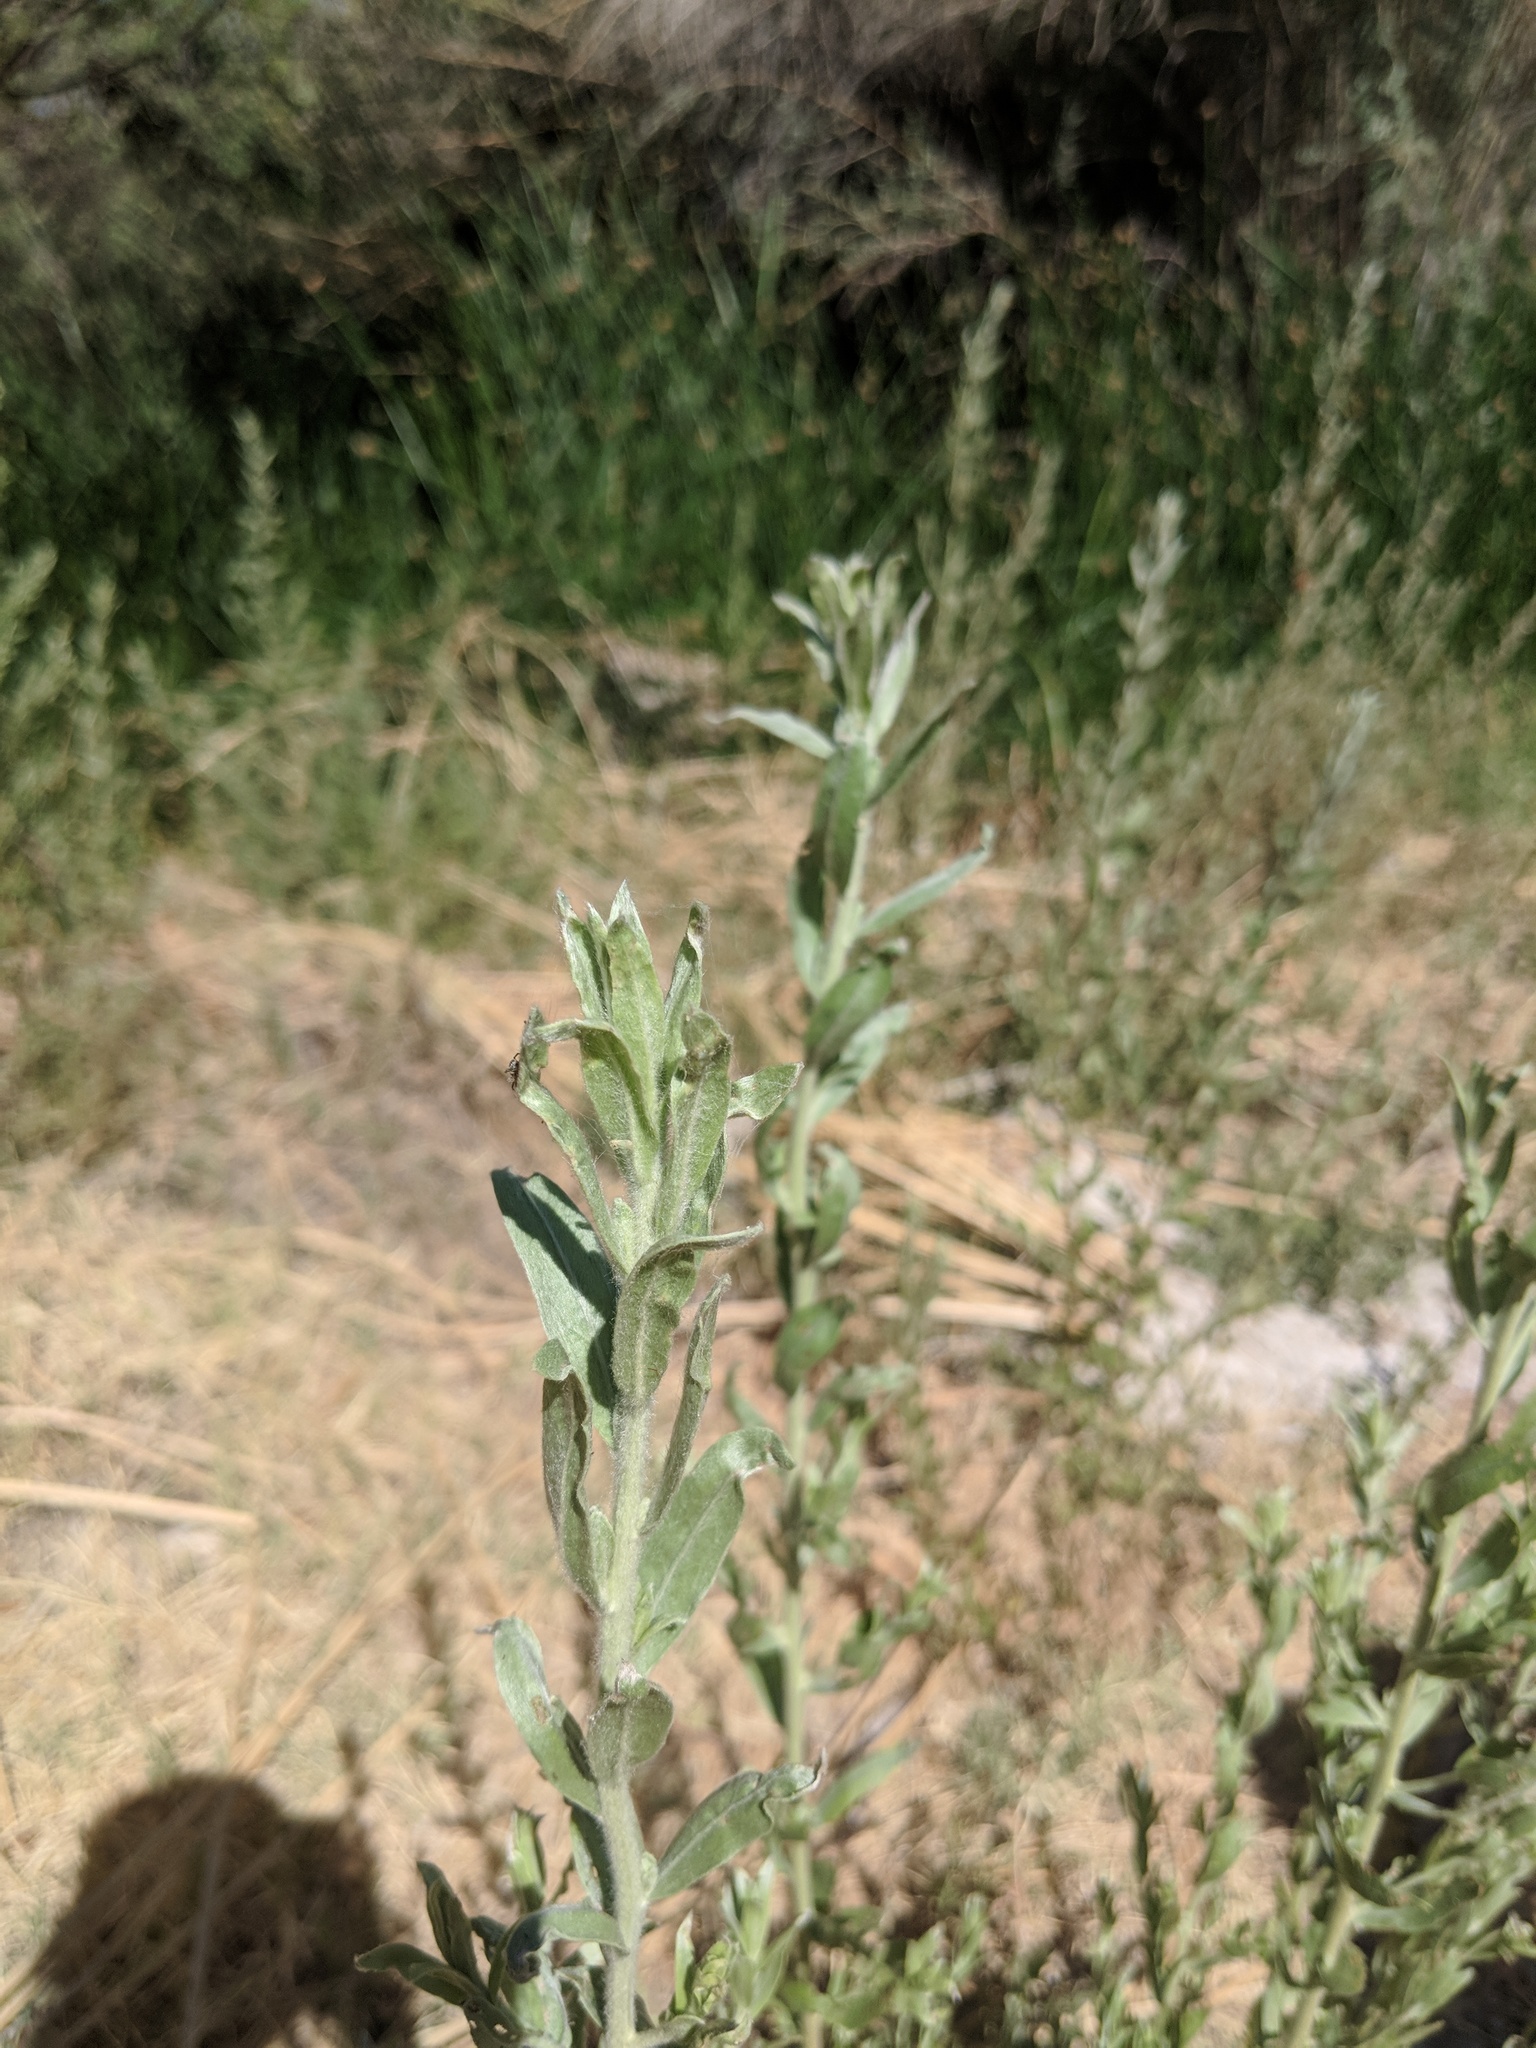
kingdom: Plantae
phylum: Tracheophyta
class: Magnoliopsida
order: Asterales
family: Asteraceae
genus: Pluchea
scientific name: Pluchea sericea
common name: Arrow-weed
